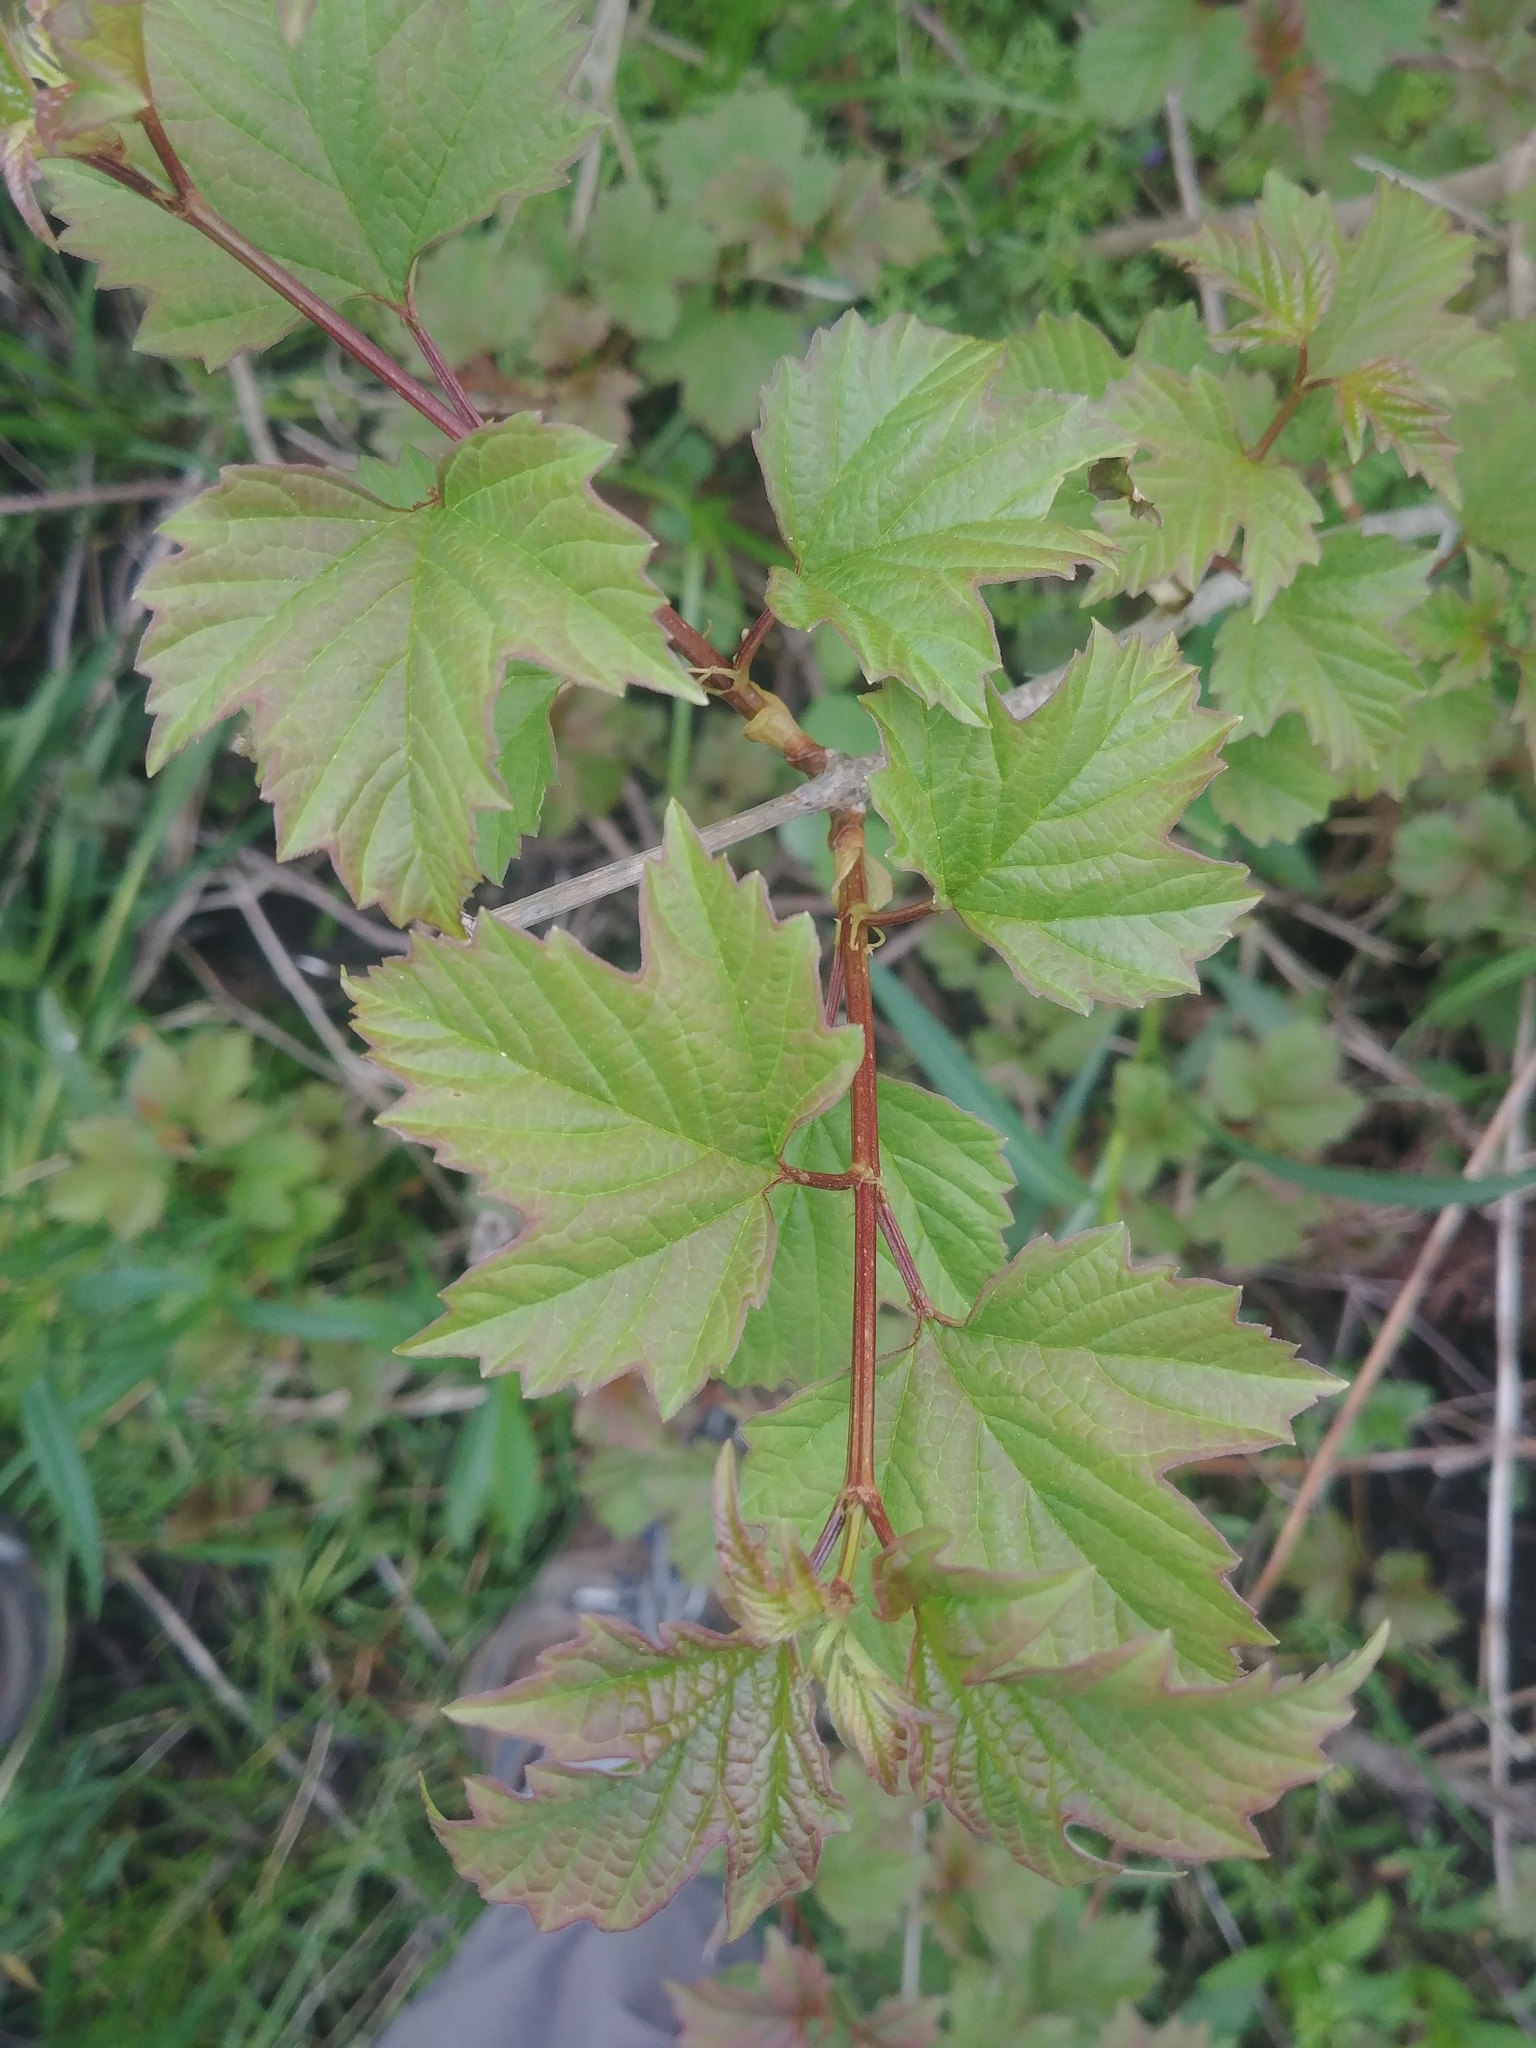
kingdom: Plantae
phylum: Tracheophyta
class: Magnoliopsida
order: Dipsacales
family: Viburnaceae
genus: Viburnum
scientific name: Viburnum opulus
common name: Guelder-rose
